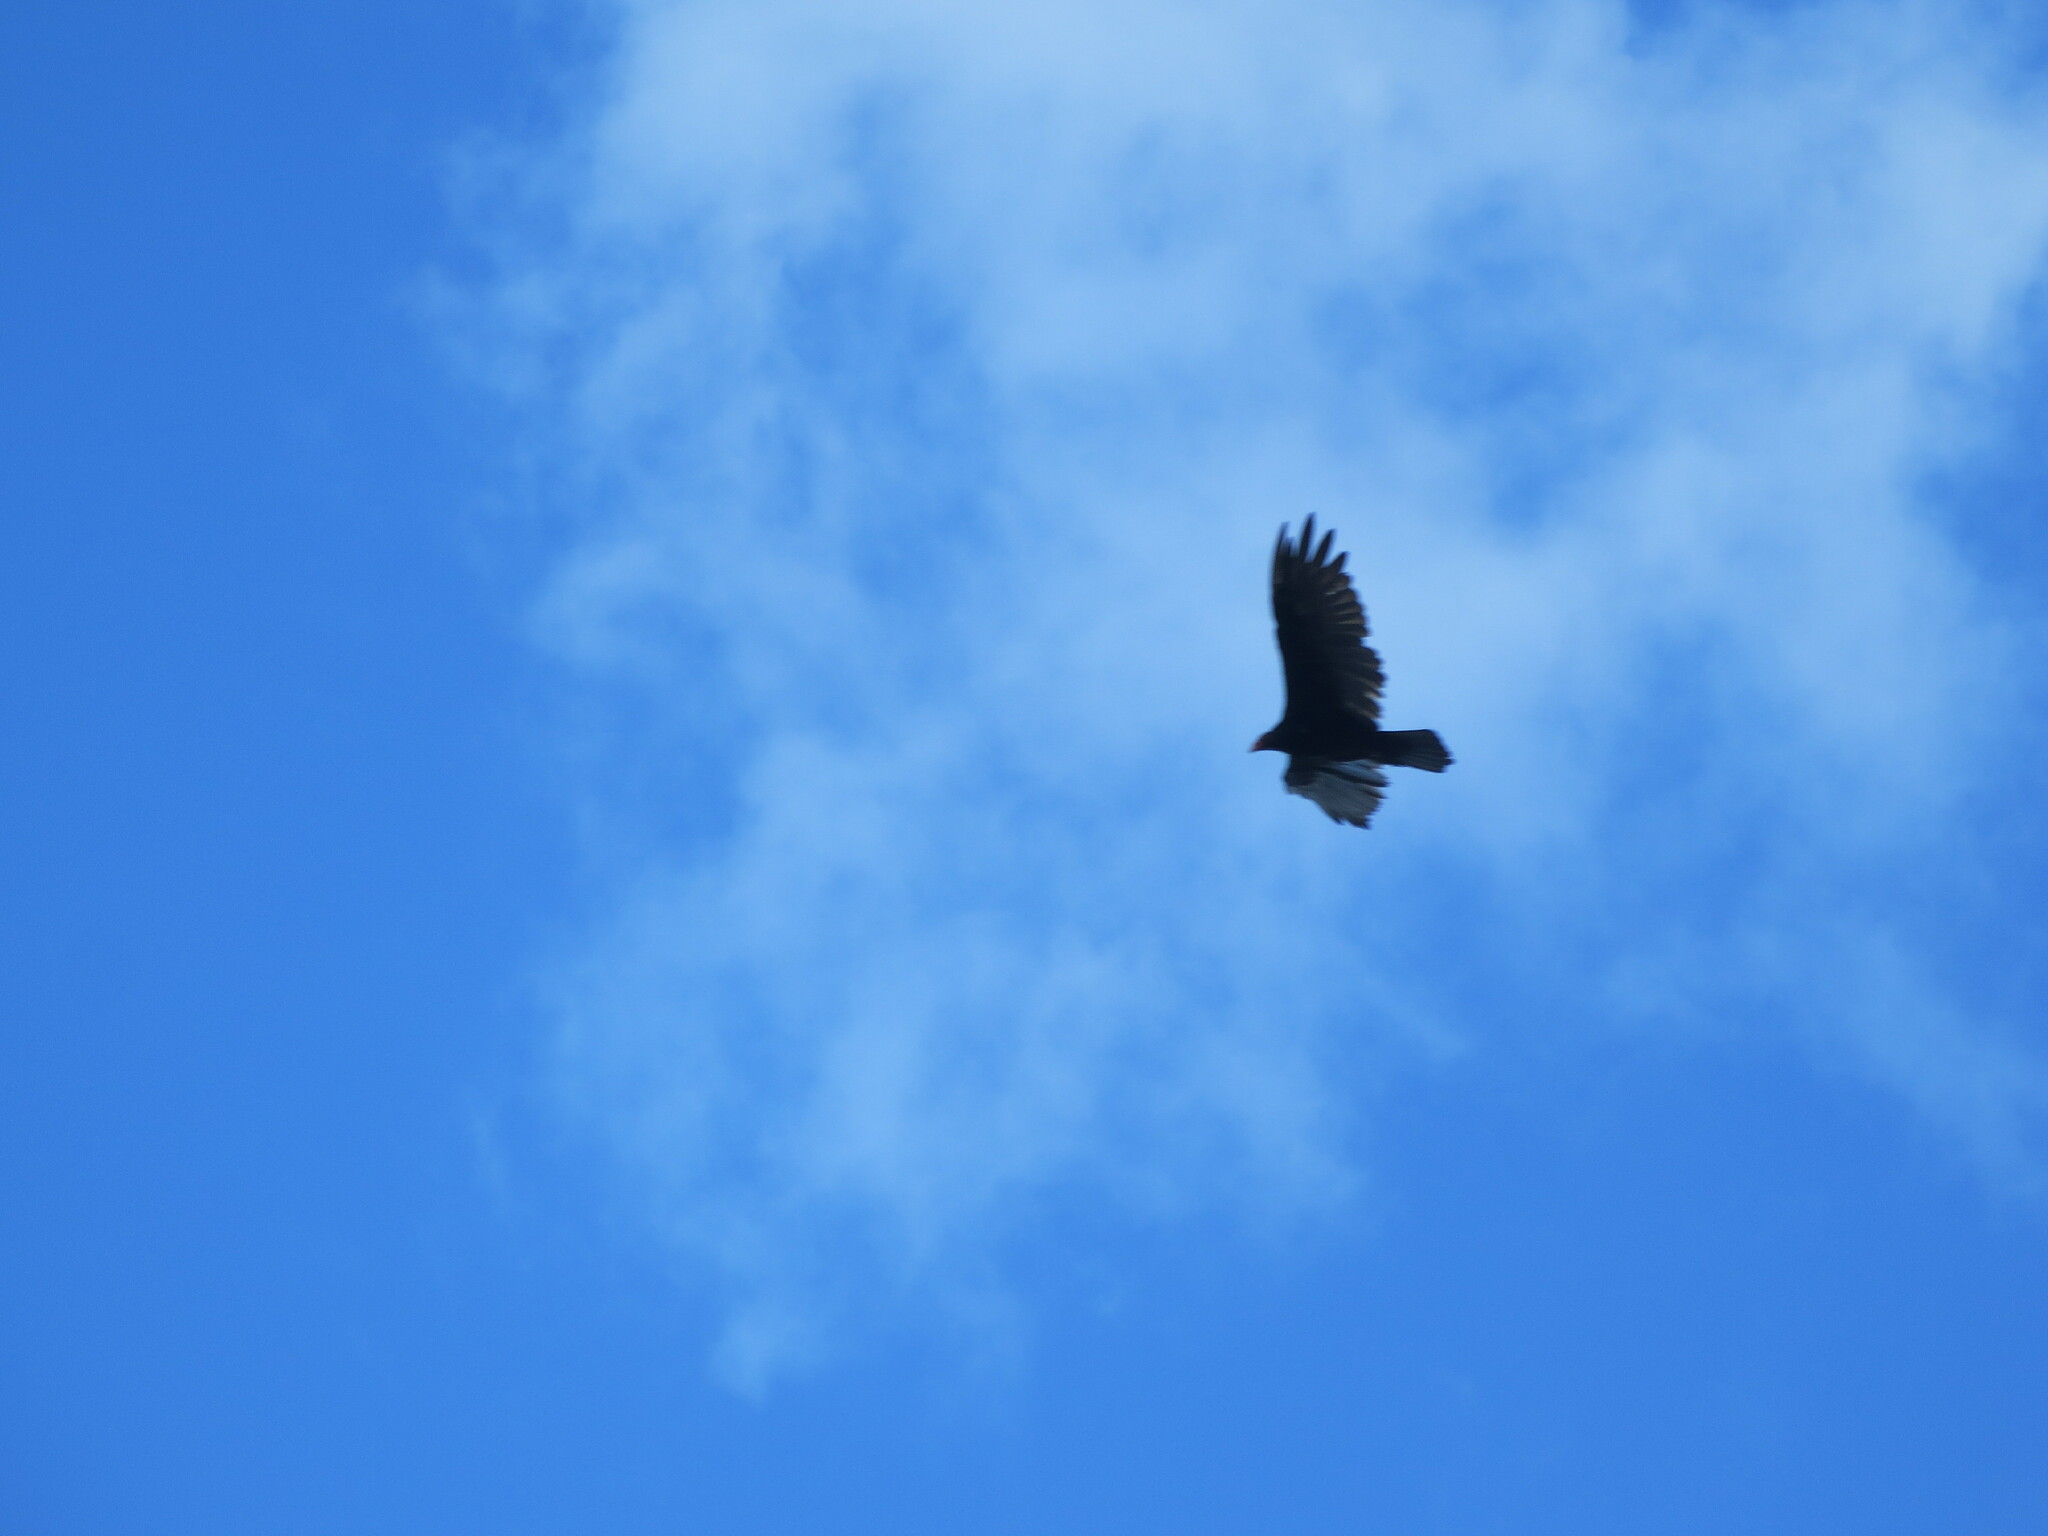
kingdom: Animalia
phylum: Chordata
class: Aves
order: Accipitriformes
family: Cathartidae
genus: Cathartes
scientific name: Cathartes aura
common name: Turkey vulture
